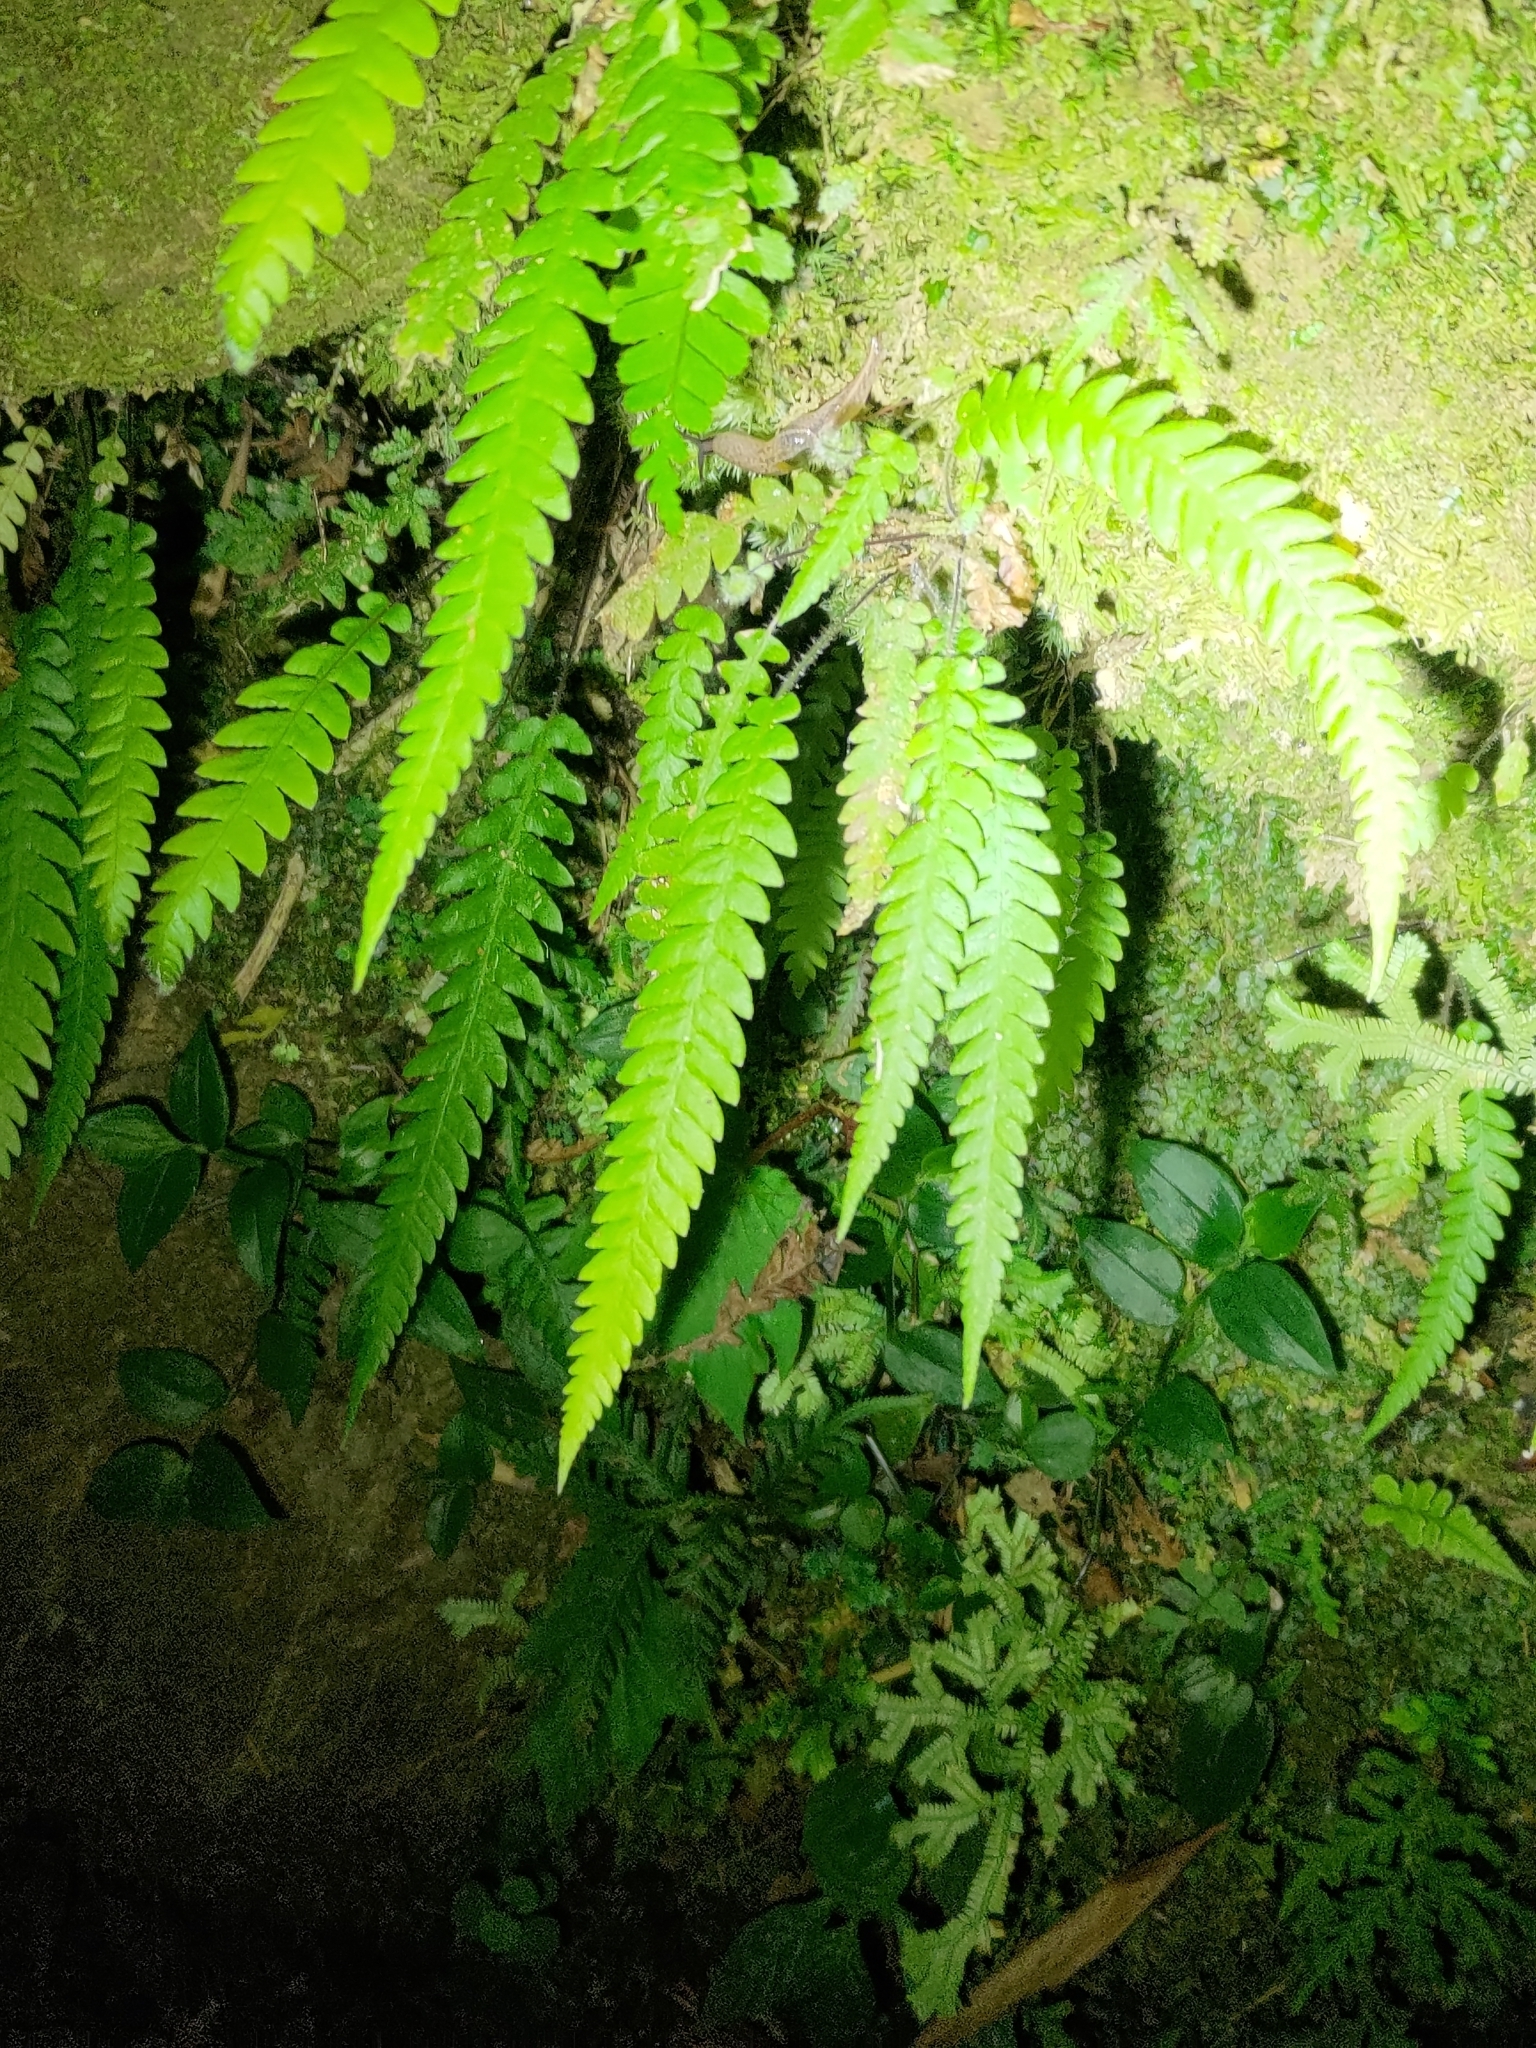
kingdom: Plantae
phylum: Tracheophyta
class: Polypodiopsida
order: Polypodiales
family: Thelypteridaceae
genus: Phegopteris
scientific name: Phegopteris decursive-pinnata
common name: Japanese beech fern
